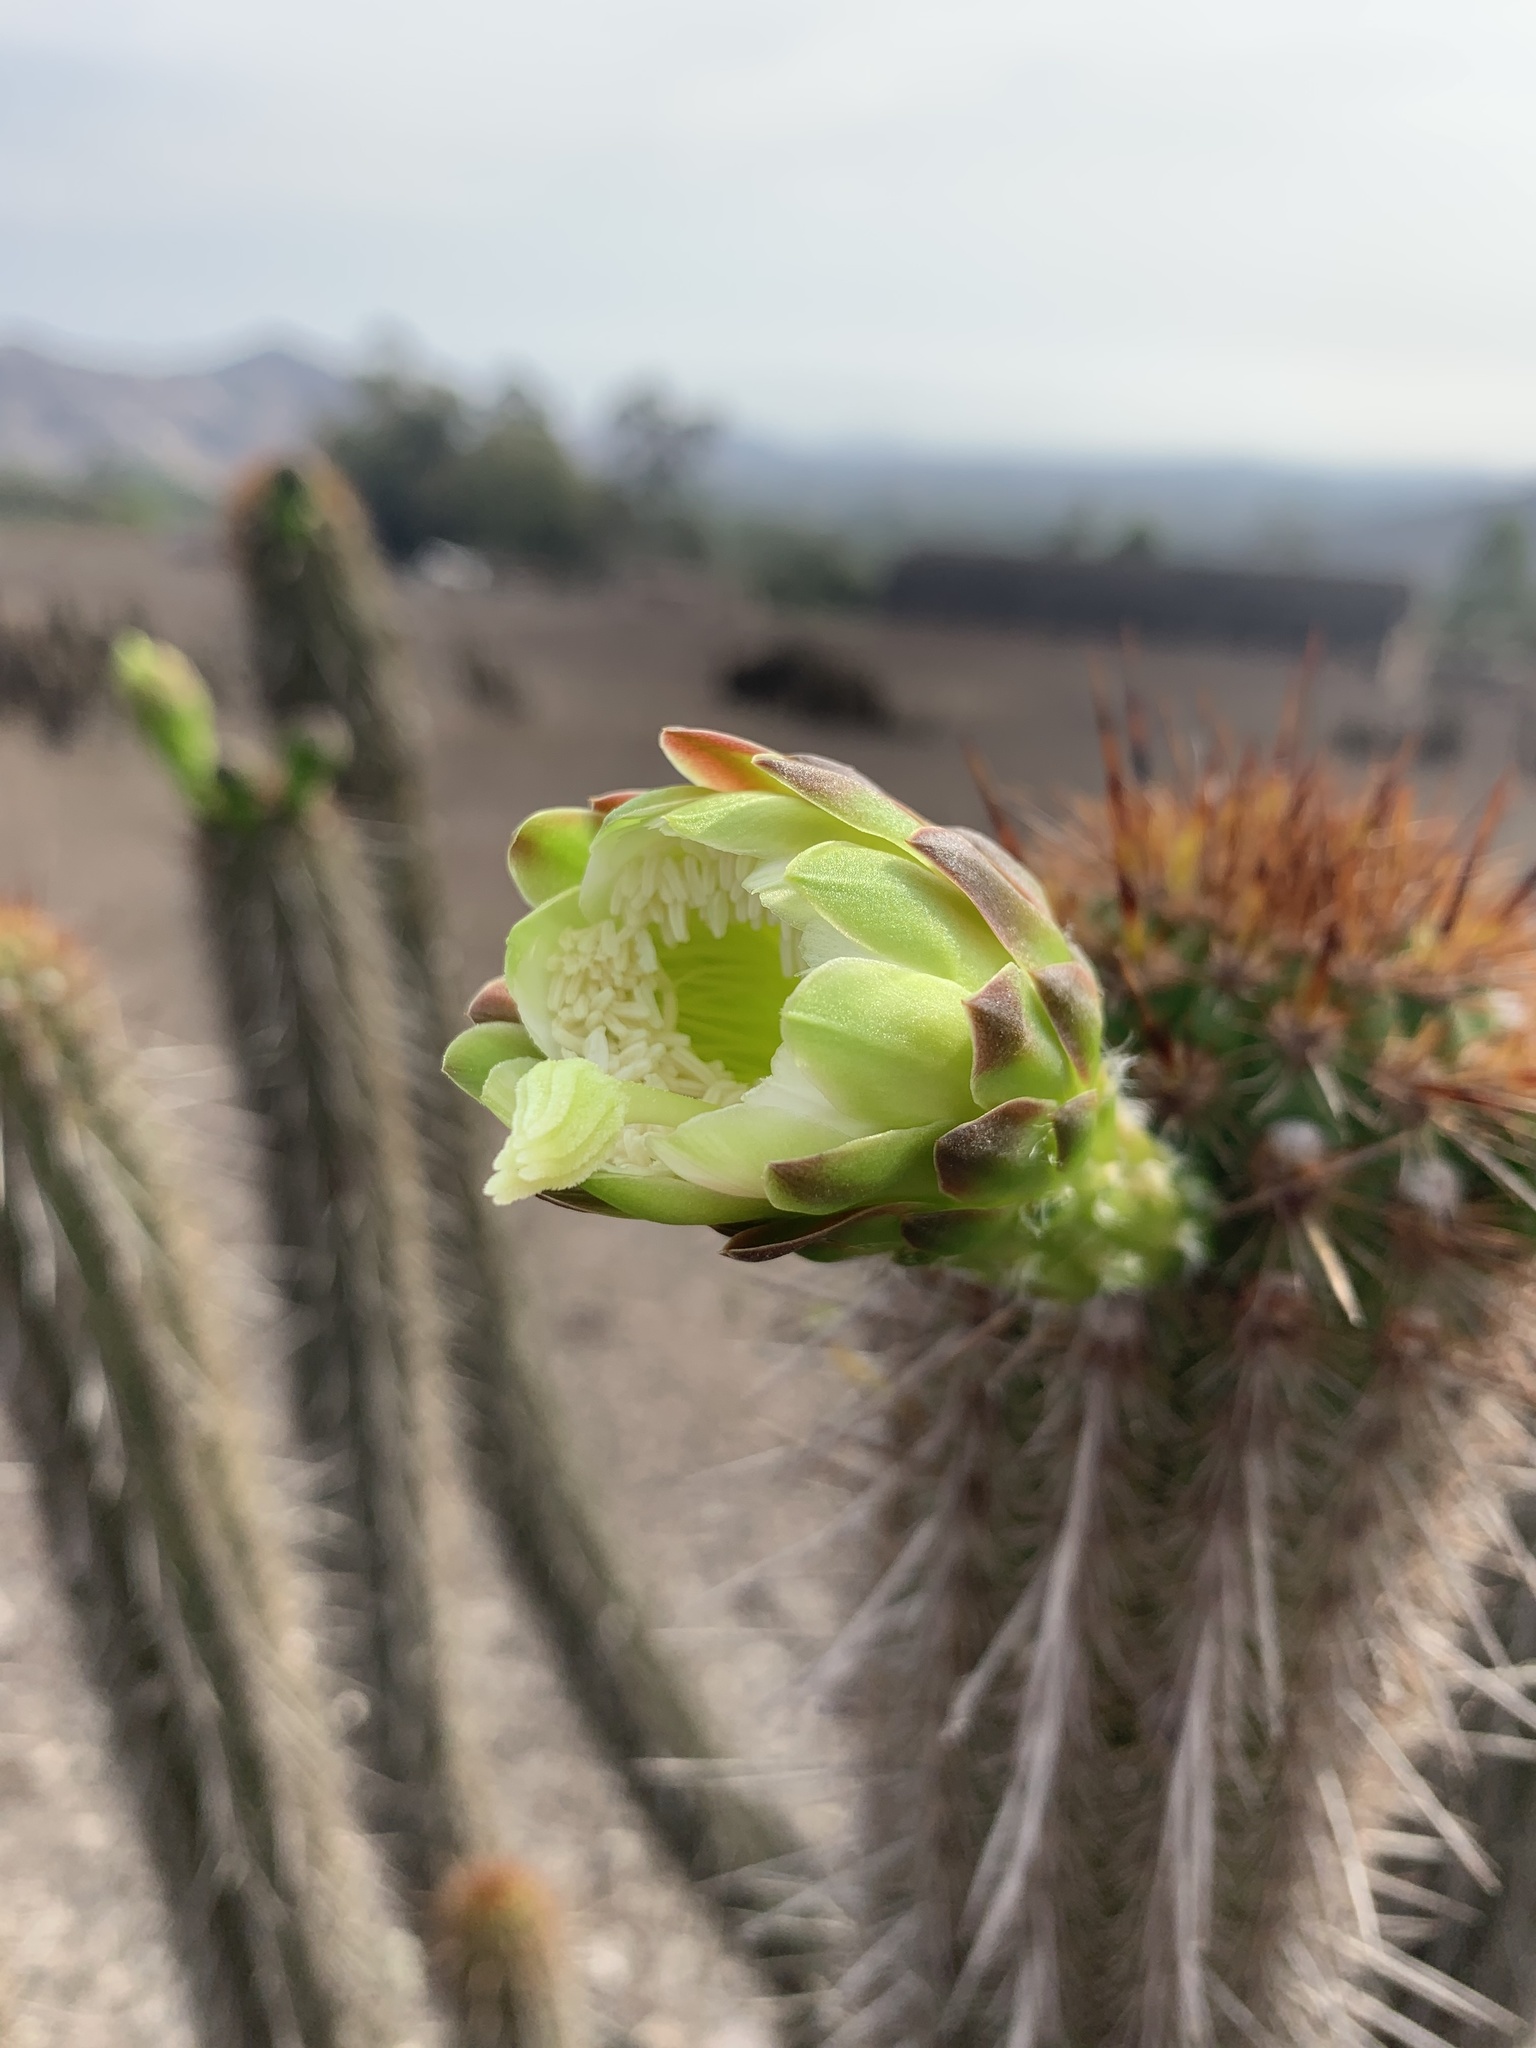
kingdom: Plantae
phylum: Tracheophyta
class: Magnoliopsida
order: Caryophyllales
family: Cactaceae
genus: Haageocereus
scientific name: Haageocereus acranthus
